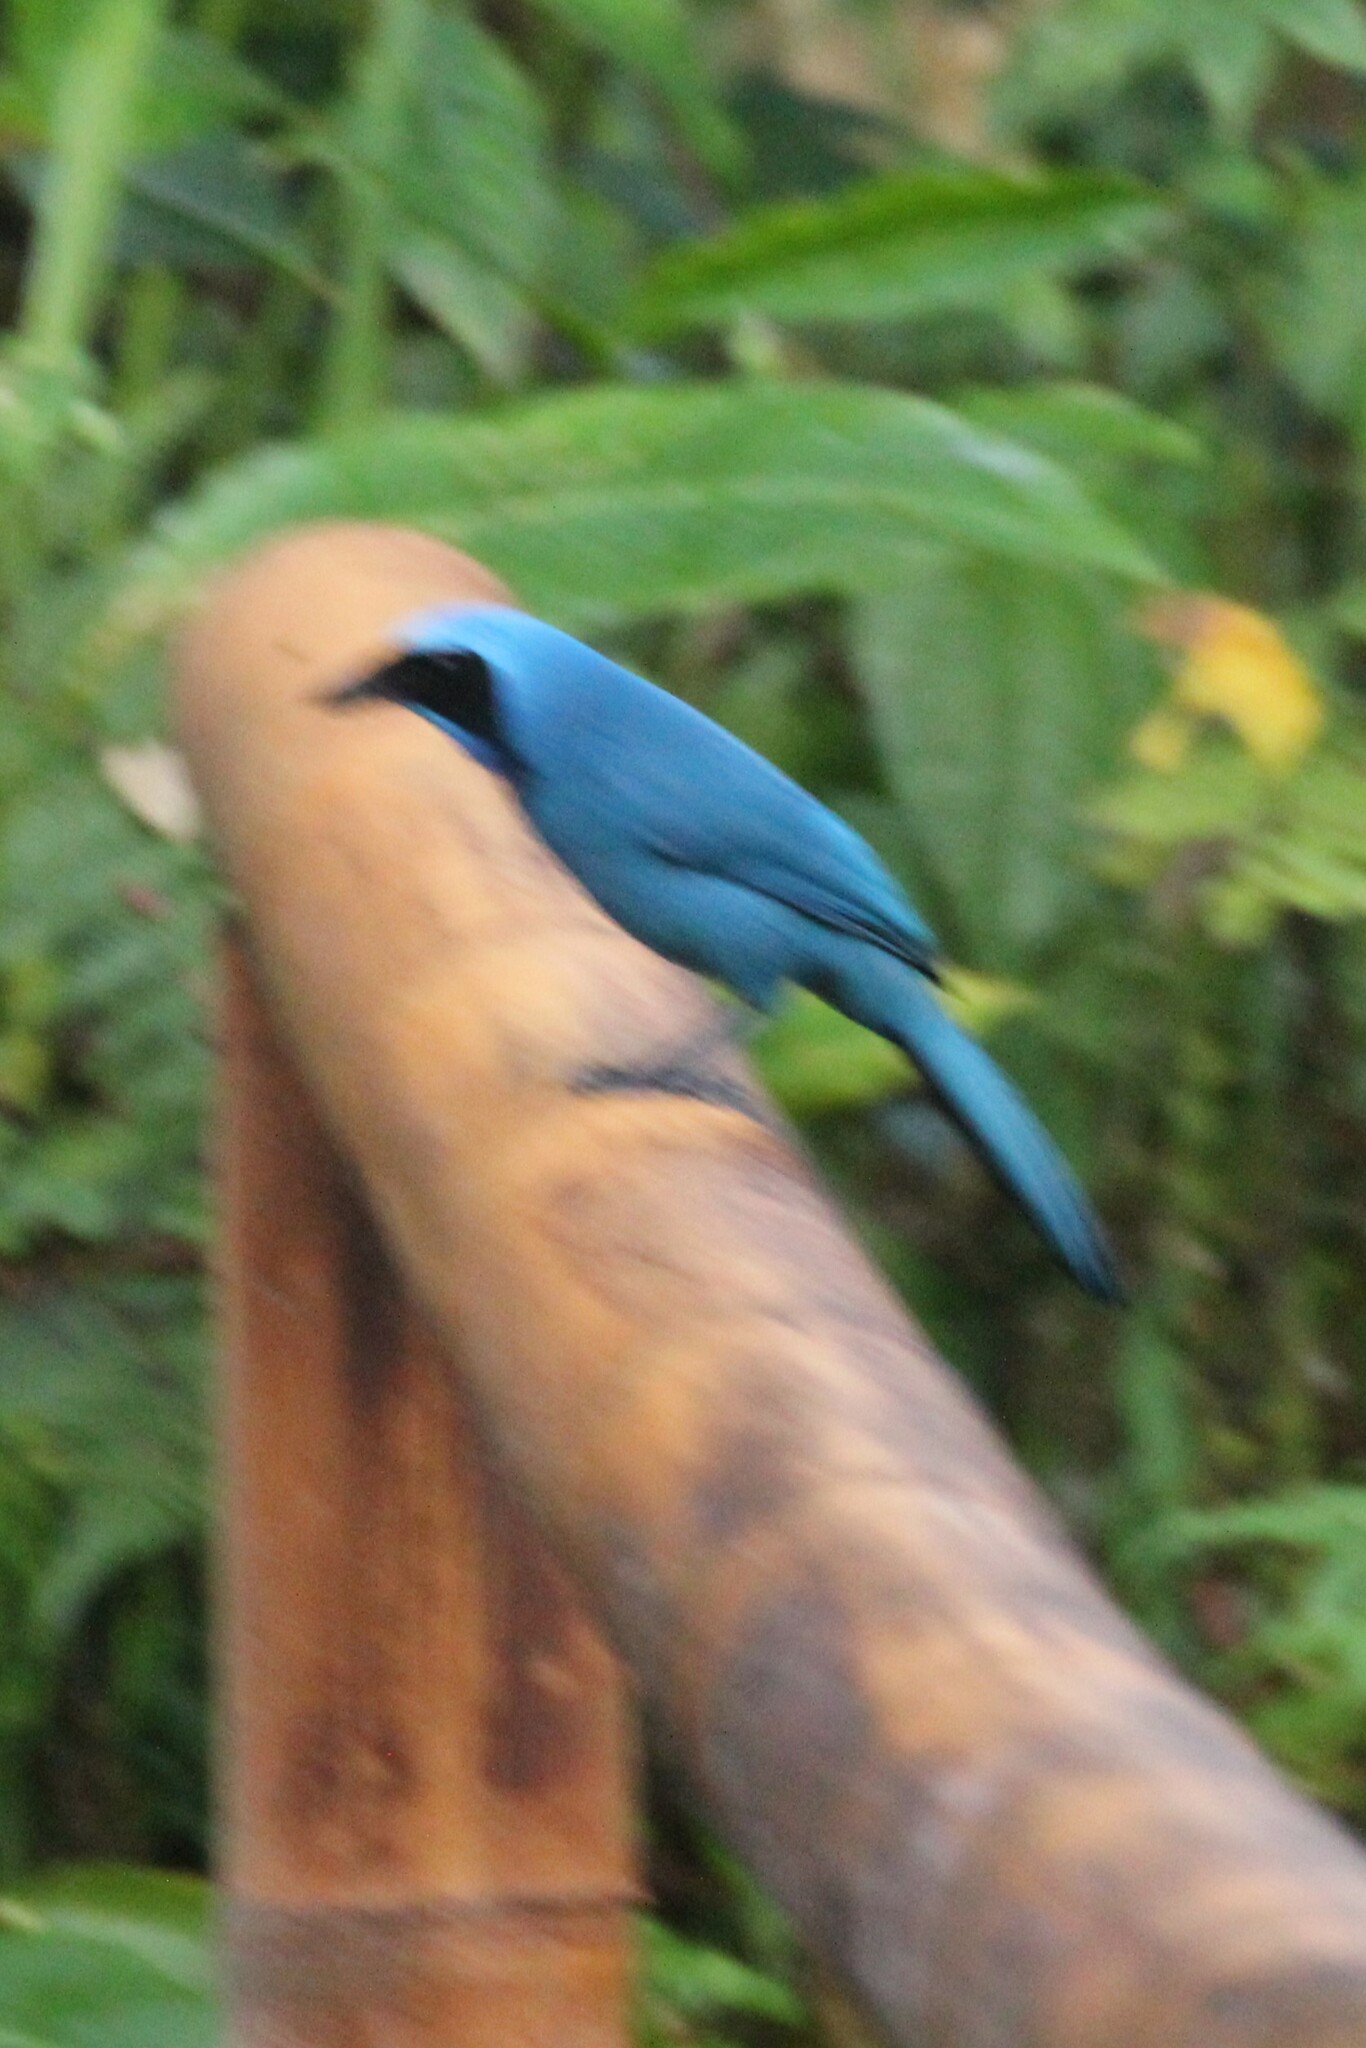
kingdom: Animalia
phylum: Chordata
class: Aves
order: Passeriformes
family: Corvidae
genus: Cyanolyca
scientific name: Cyanolyca turcosa
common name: Turquoise jay
